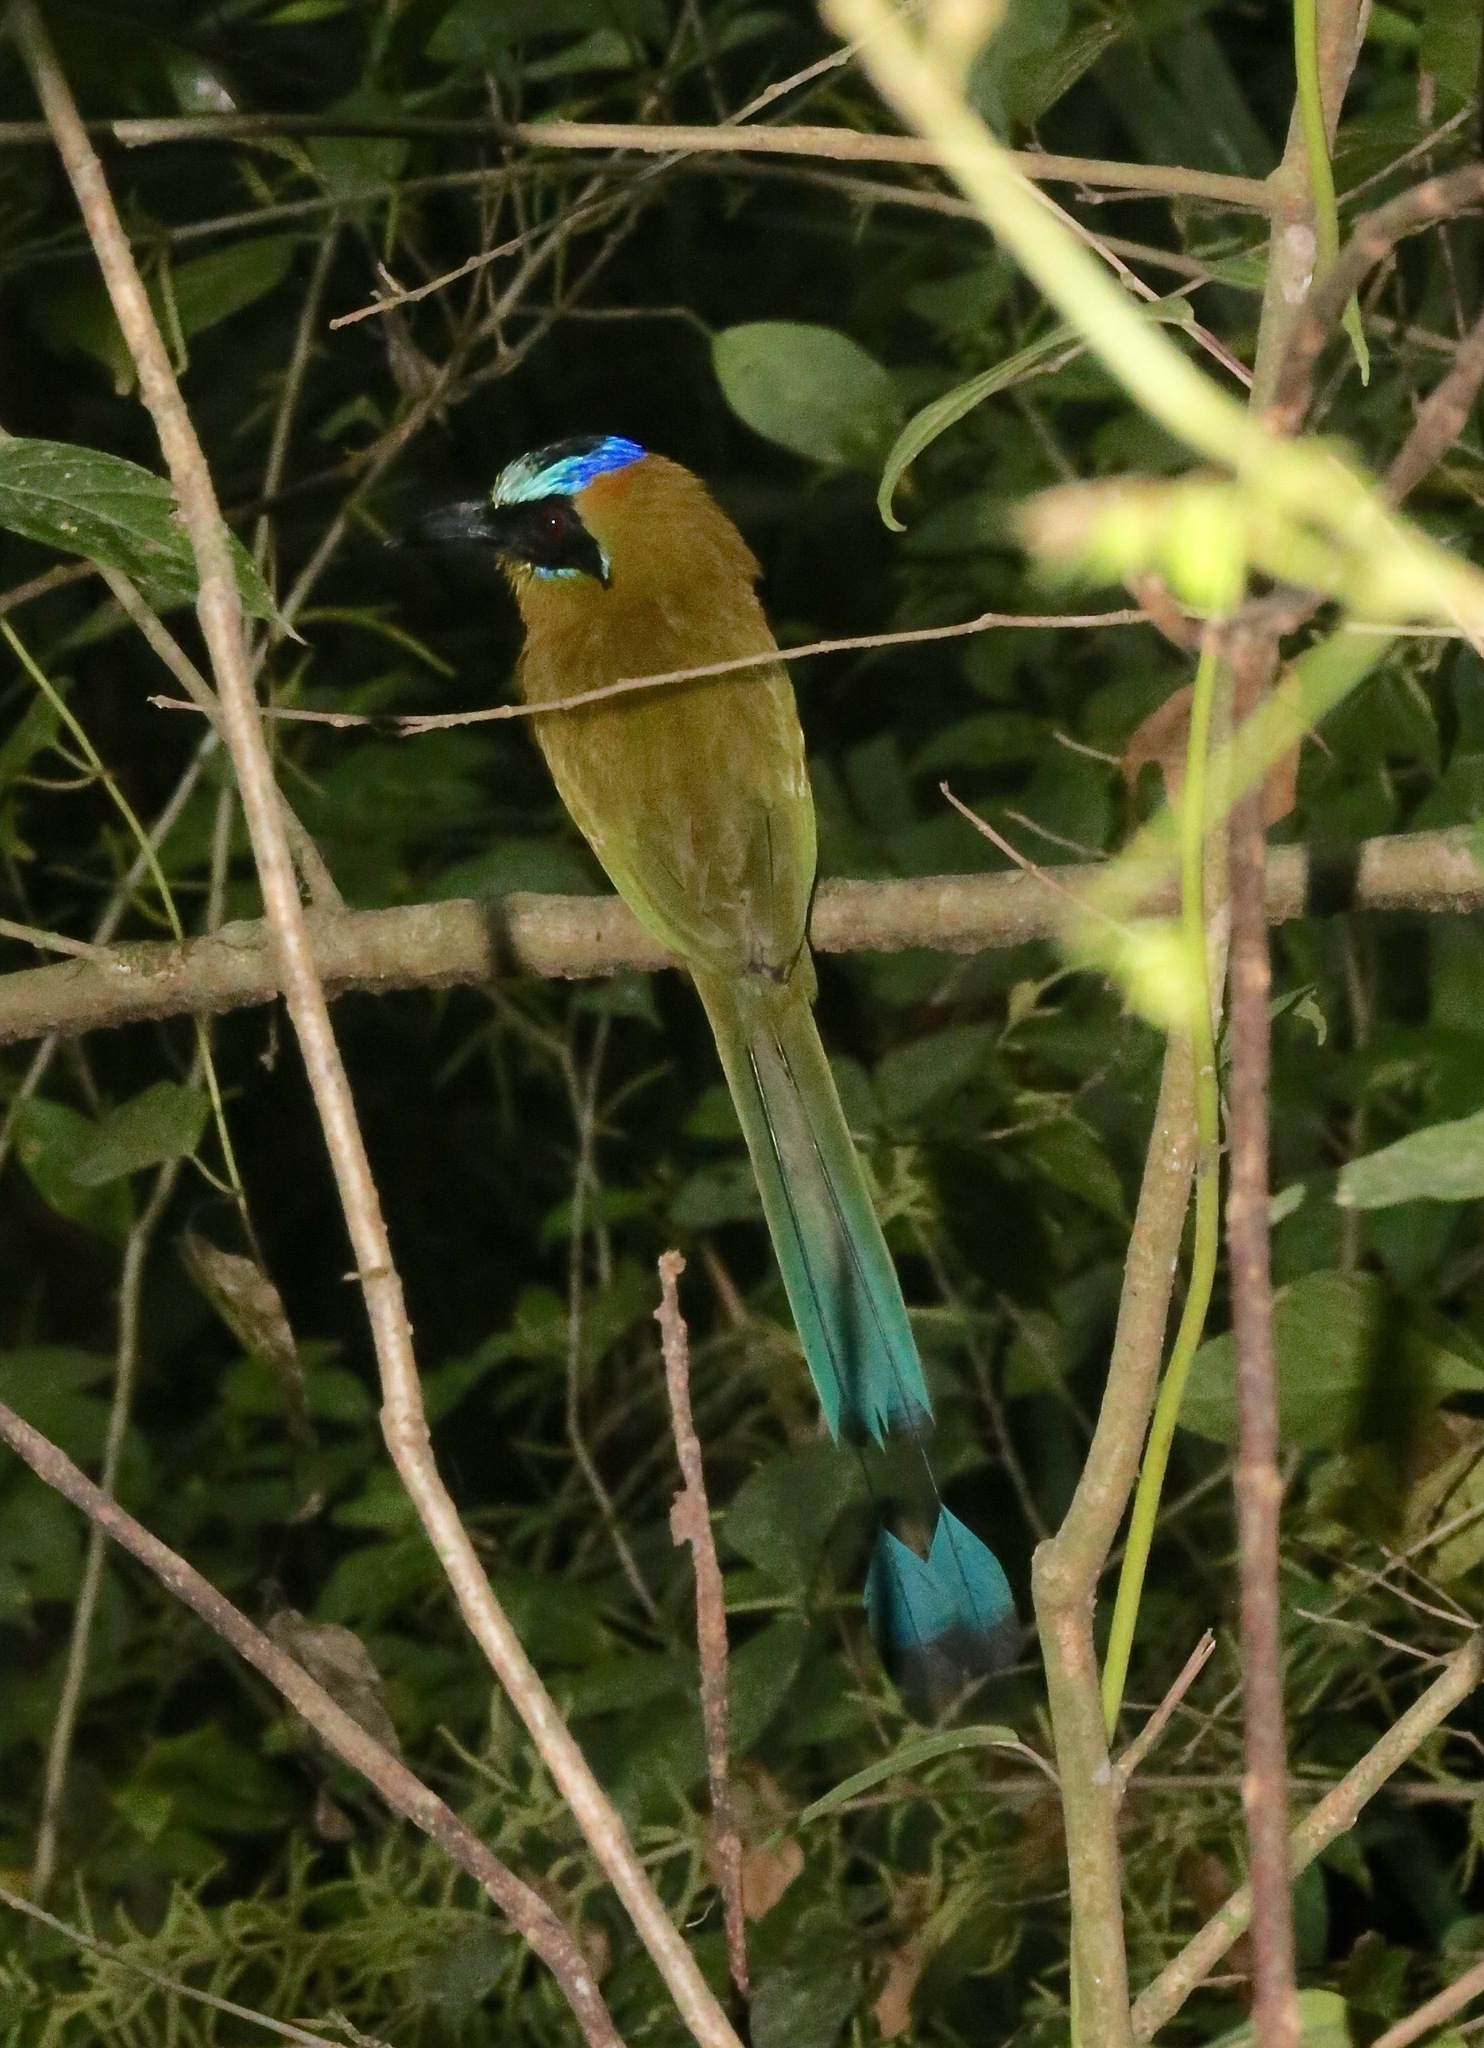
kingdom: Animalia
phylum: Chordata
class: Aves
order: Coraciiformes
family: Momotidae
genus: Momotus
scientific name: Momotus subrufescens
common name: Whooping motmot
